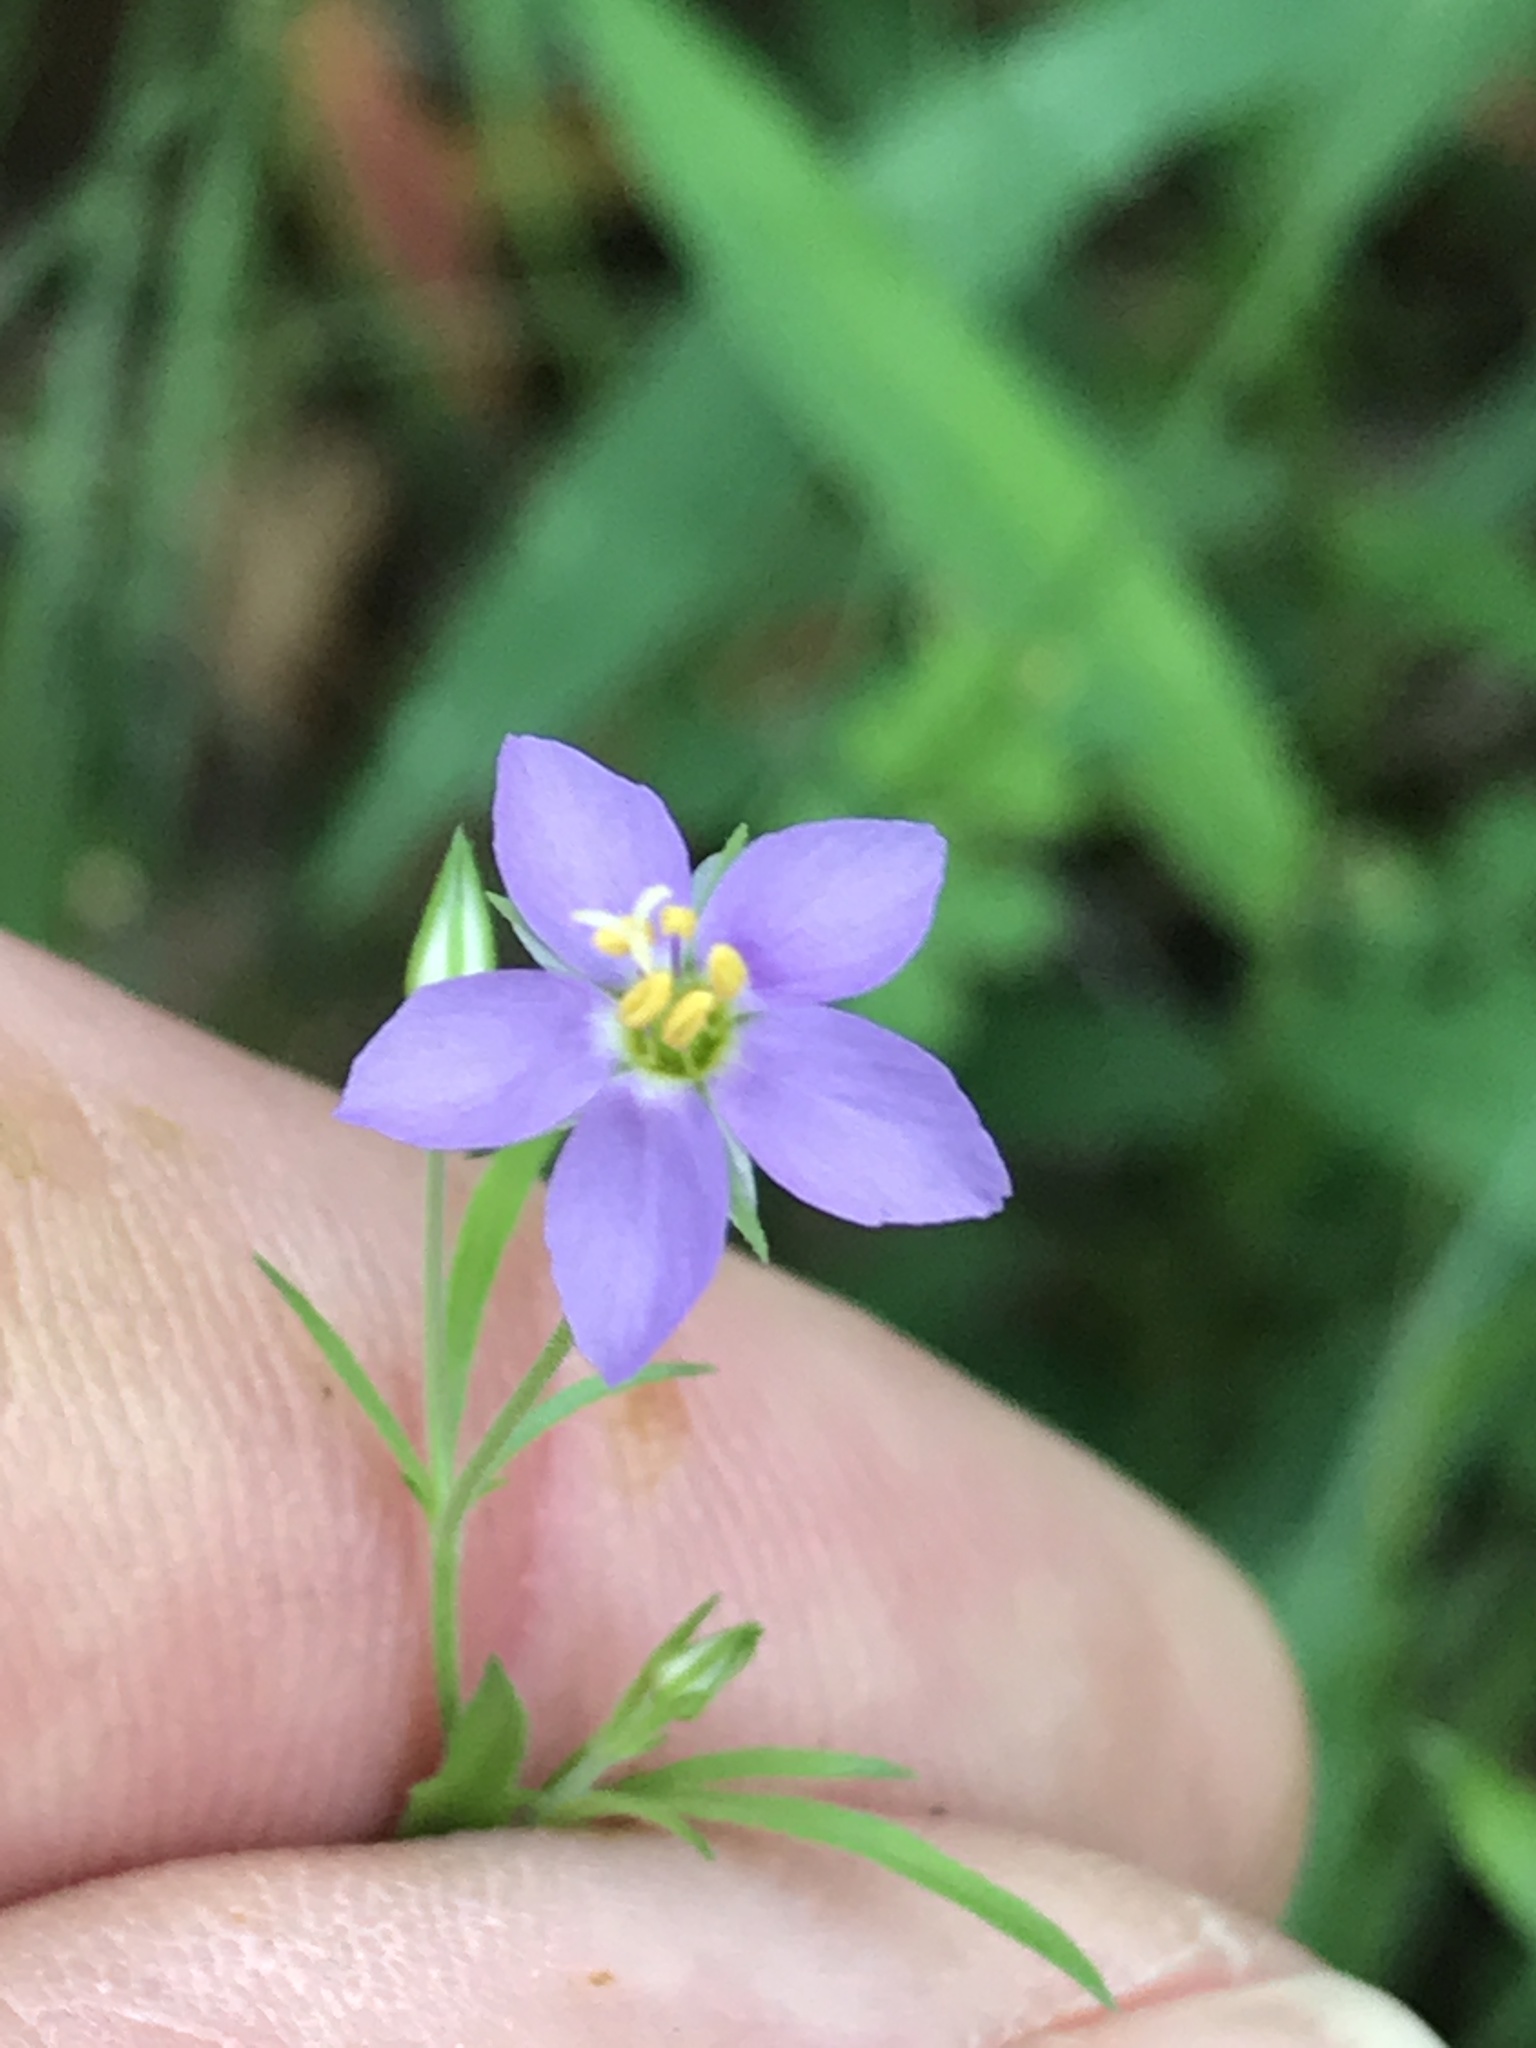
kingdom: Plantae
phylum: Tracheophyta
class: Magnoliopsida
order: Ericales
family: Polemoniaceae
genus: Giliastrum
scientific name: Giliastrum incisum
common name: Splitleaf gilia
